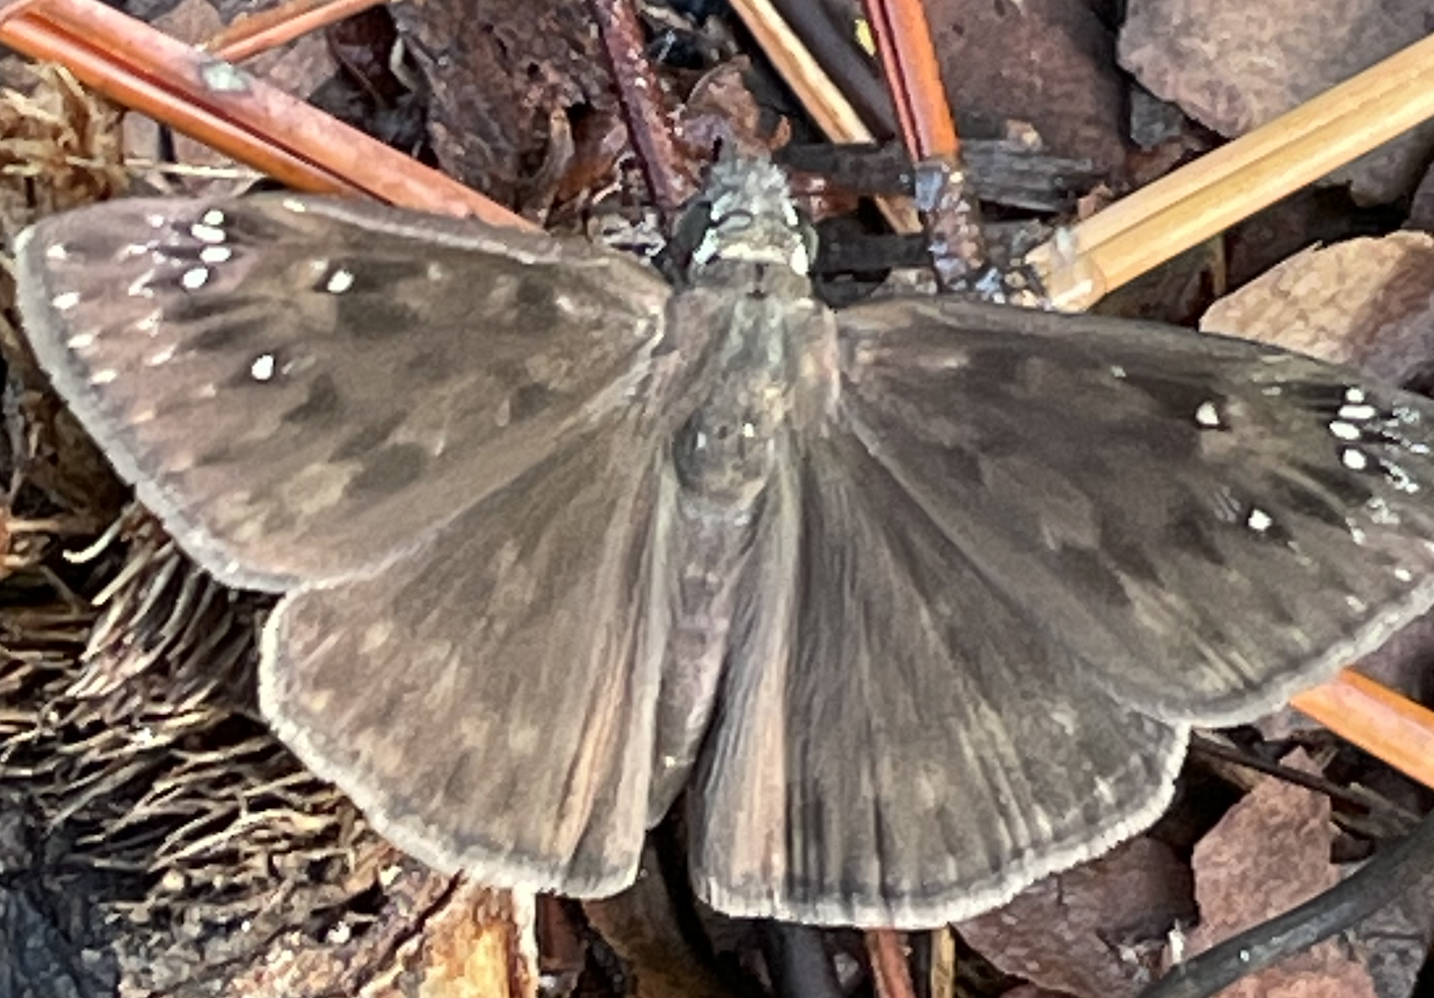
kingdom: Animalia
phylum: Arthropoda
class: Insecta
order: Lepidoptera
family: Hesperiidae
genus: Erynnis
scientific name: Erynnis horatius
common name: Horace's duskywing
